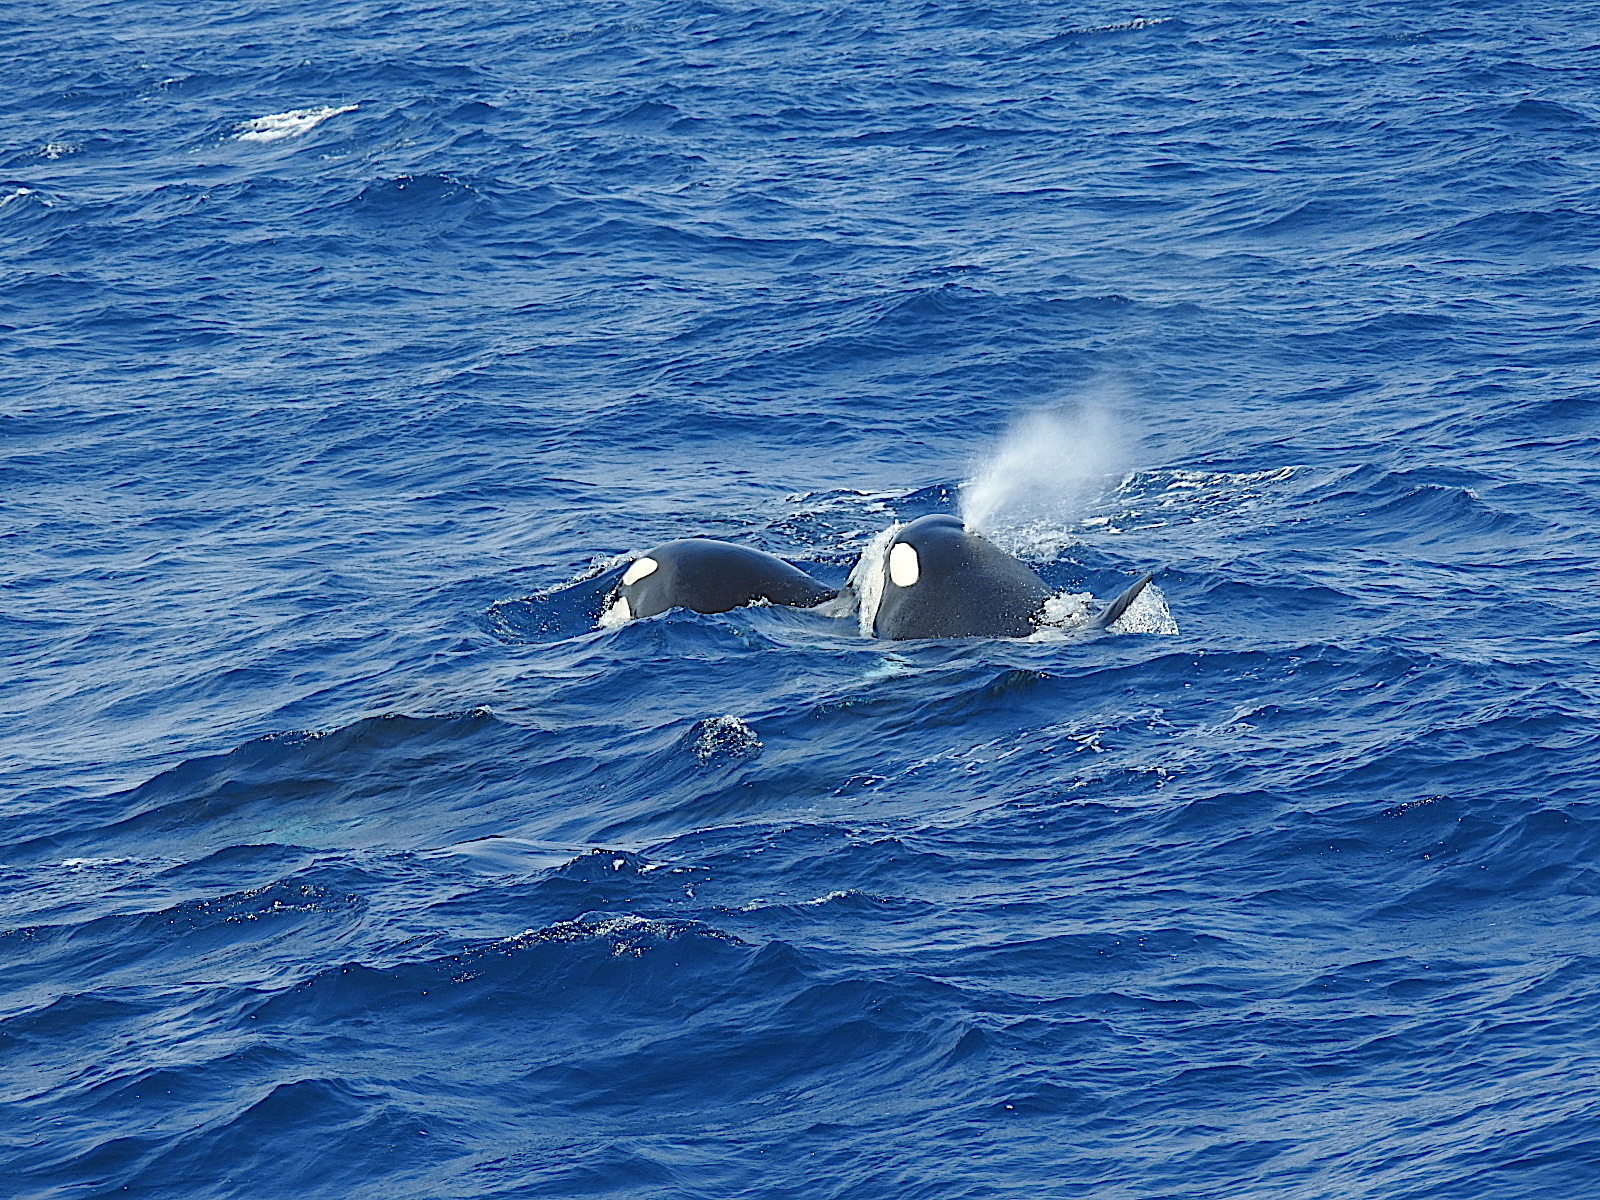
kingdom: Animalia
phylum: Chordata
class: Mammalia
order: Cetacea
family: Delphinidae
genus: Orcinus
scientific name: Orcinus orca
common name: Killer whale
